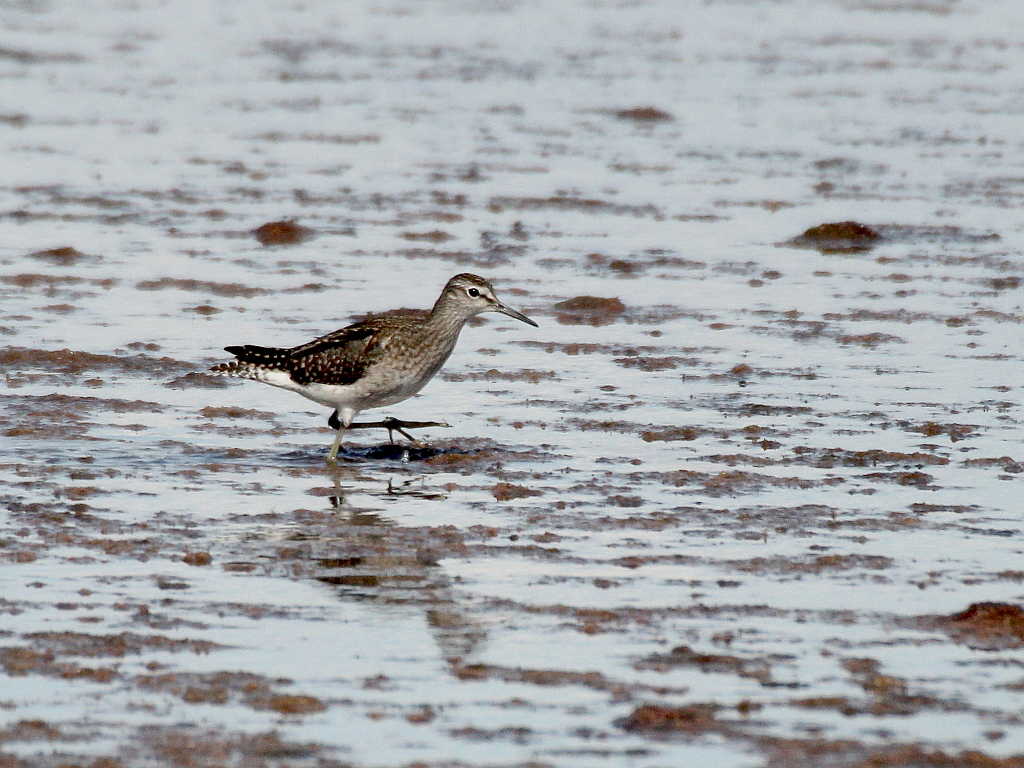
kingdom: Animalia
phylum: Chordata
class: Aves
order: Charadriiformes
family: Scolopacidae
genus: Tringa
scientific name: Tringa glareola
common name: Wood sandpiper
